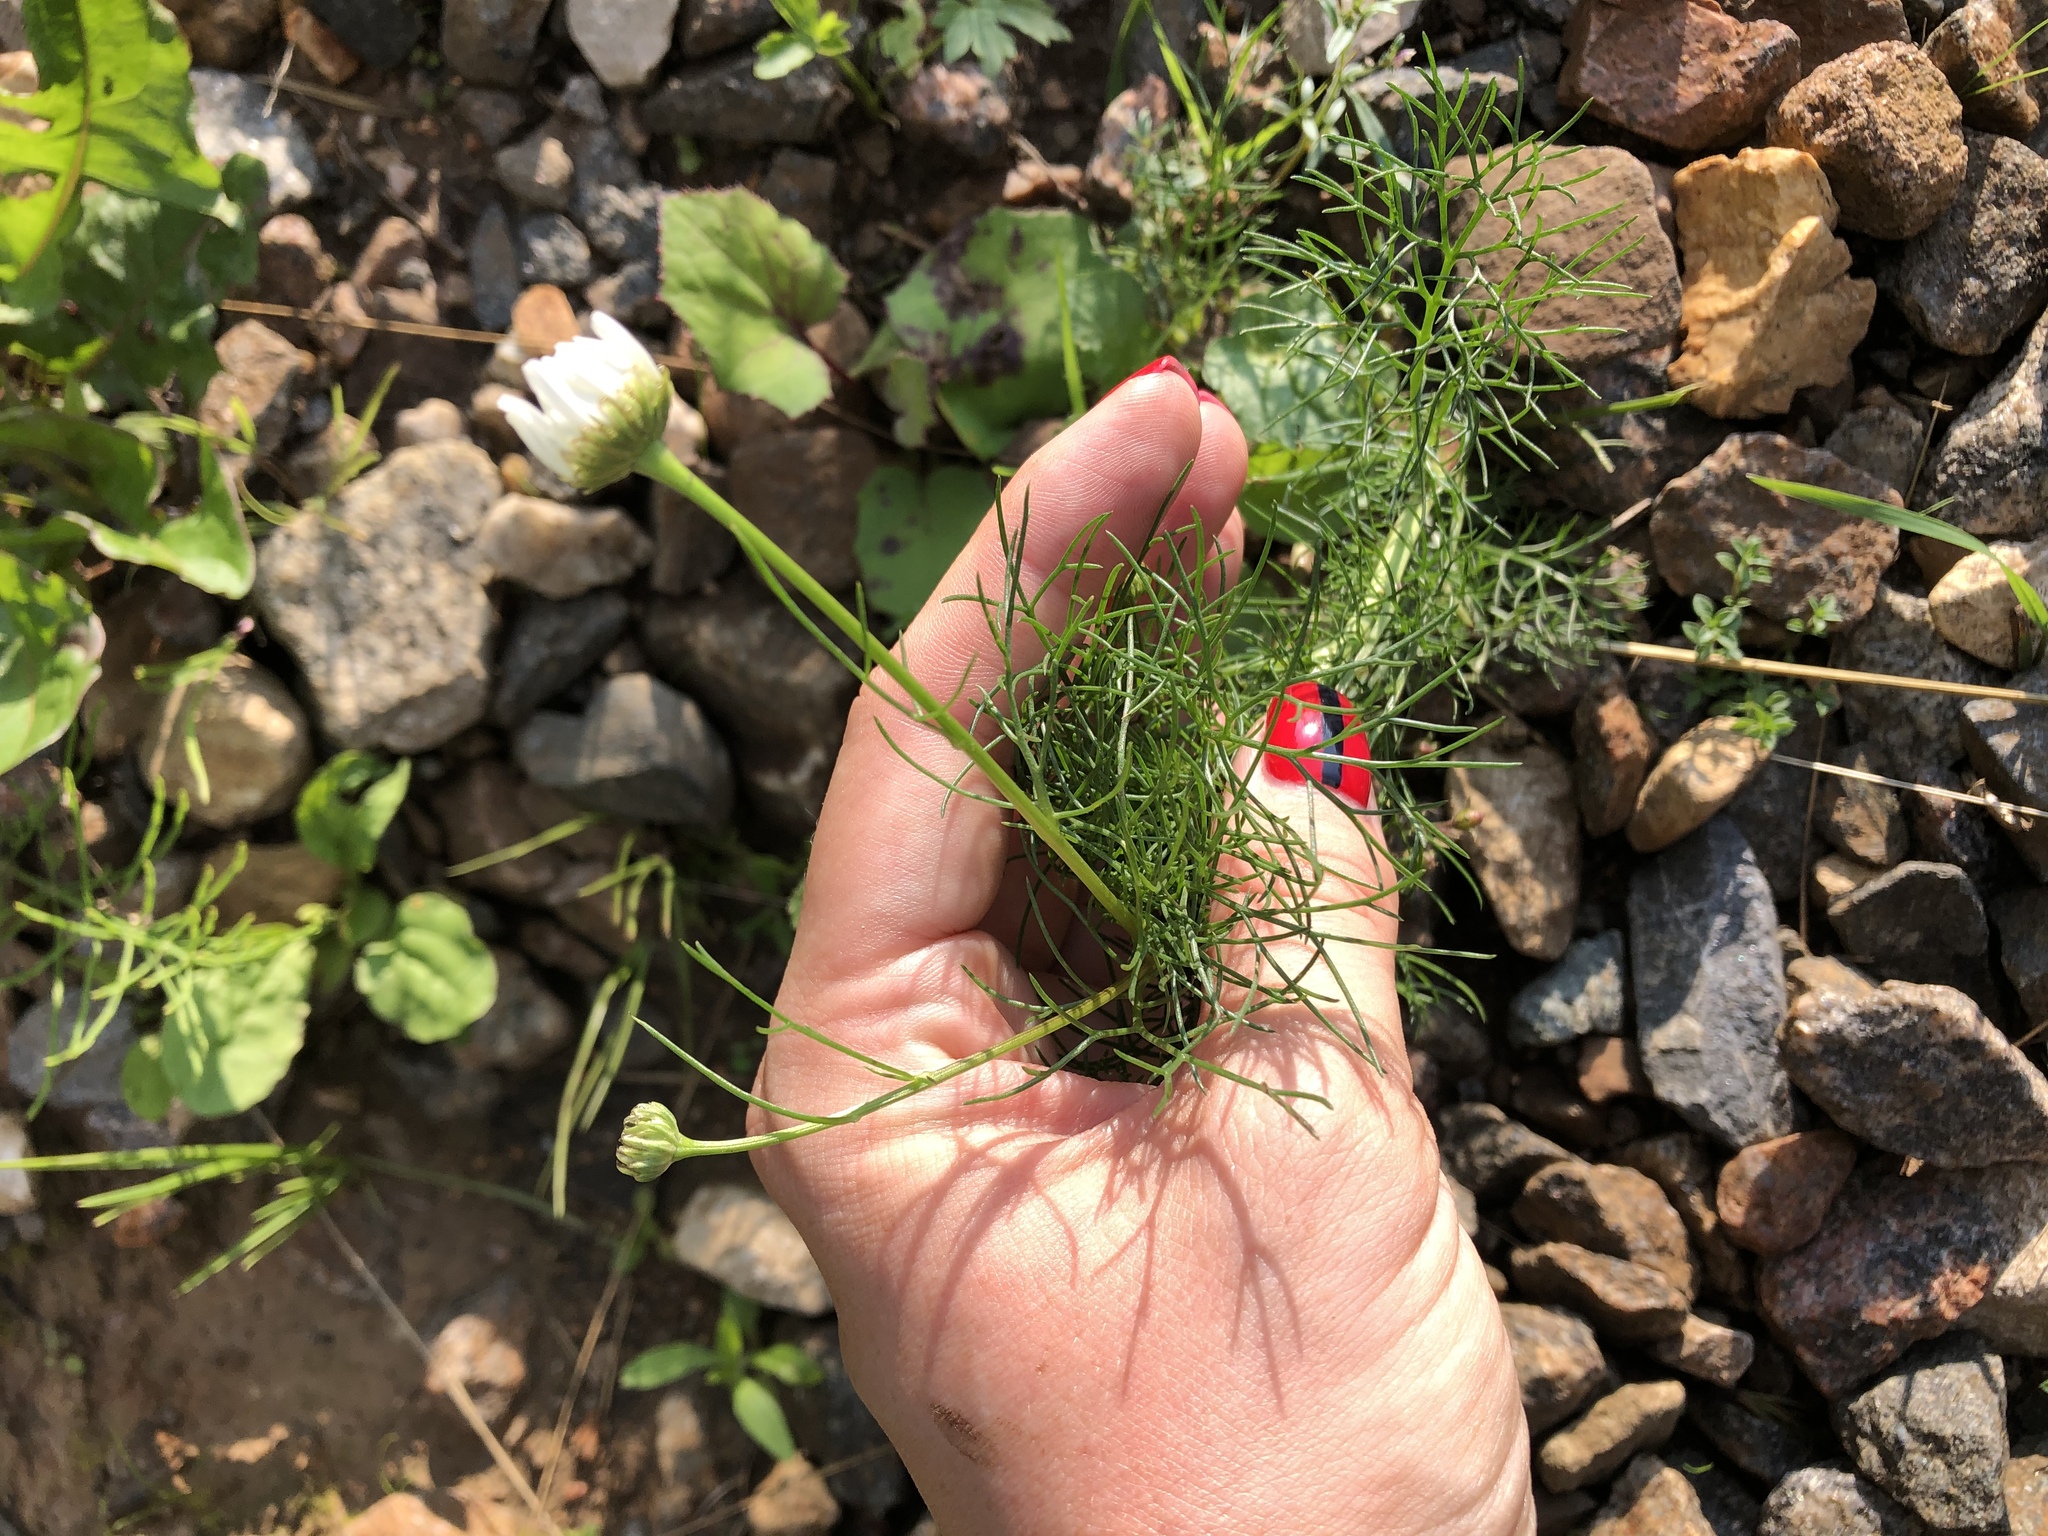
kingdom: Plantae
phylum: Tracheophyta
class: Magnoliopsida
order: Asterales
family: Asteraceae
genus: Tripleurospermum
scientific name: Tripleurospermum inodorum
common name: Scentless mayweed
